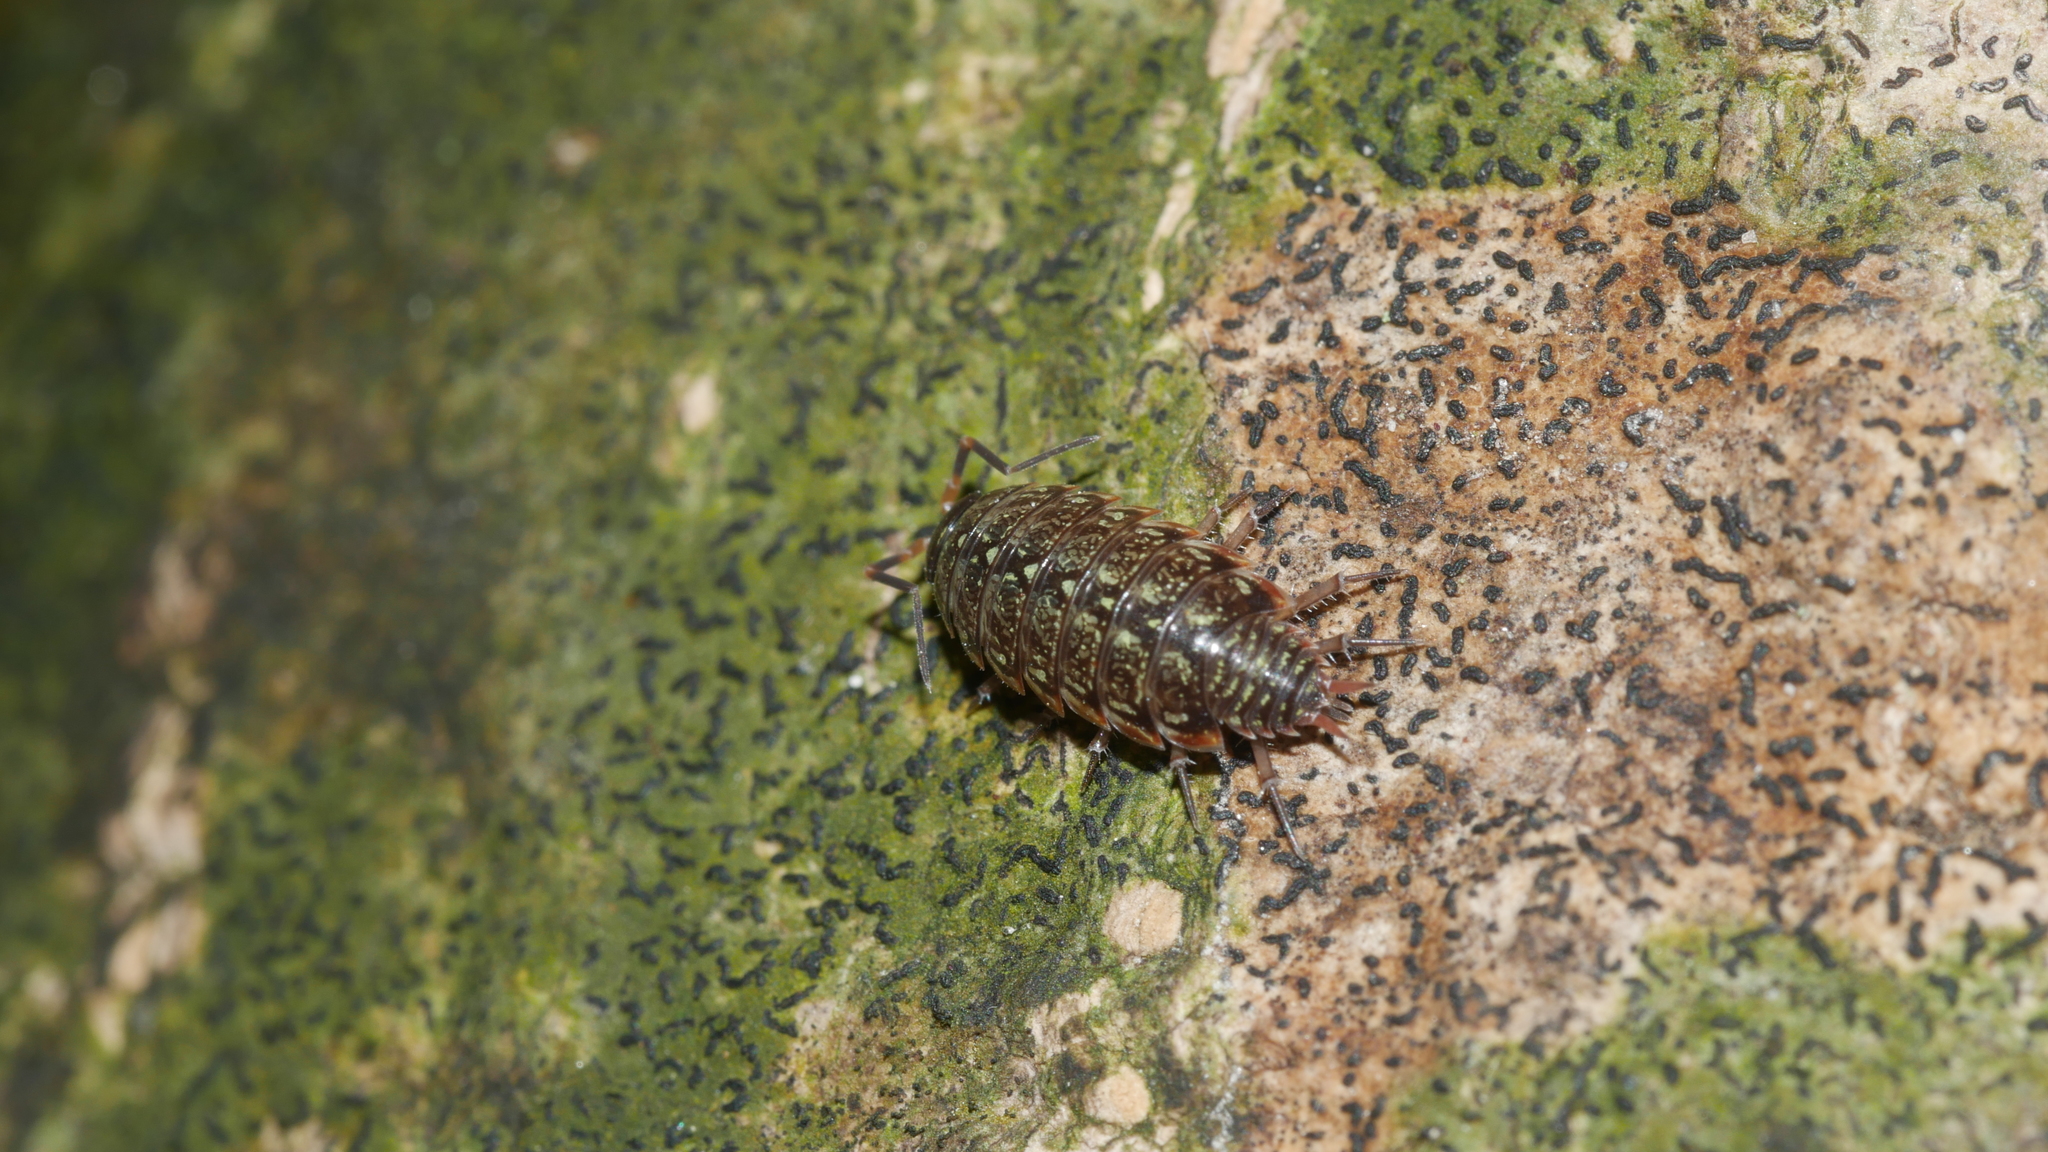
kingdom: Animalia
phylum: Arthropoda
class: Malacostraca
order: Isopoda
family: Philosciidae
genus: Philoscia
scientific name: Philoscia muscorum
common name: Common striped woodlouse
